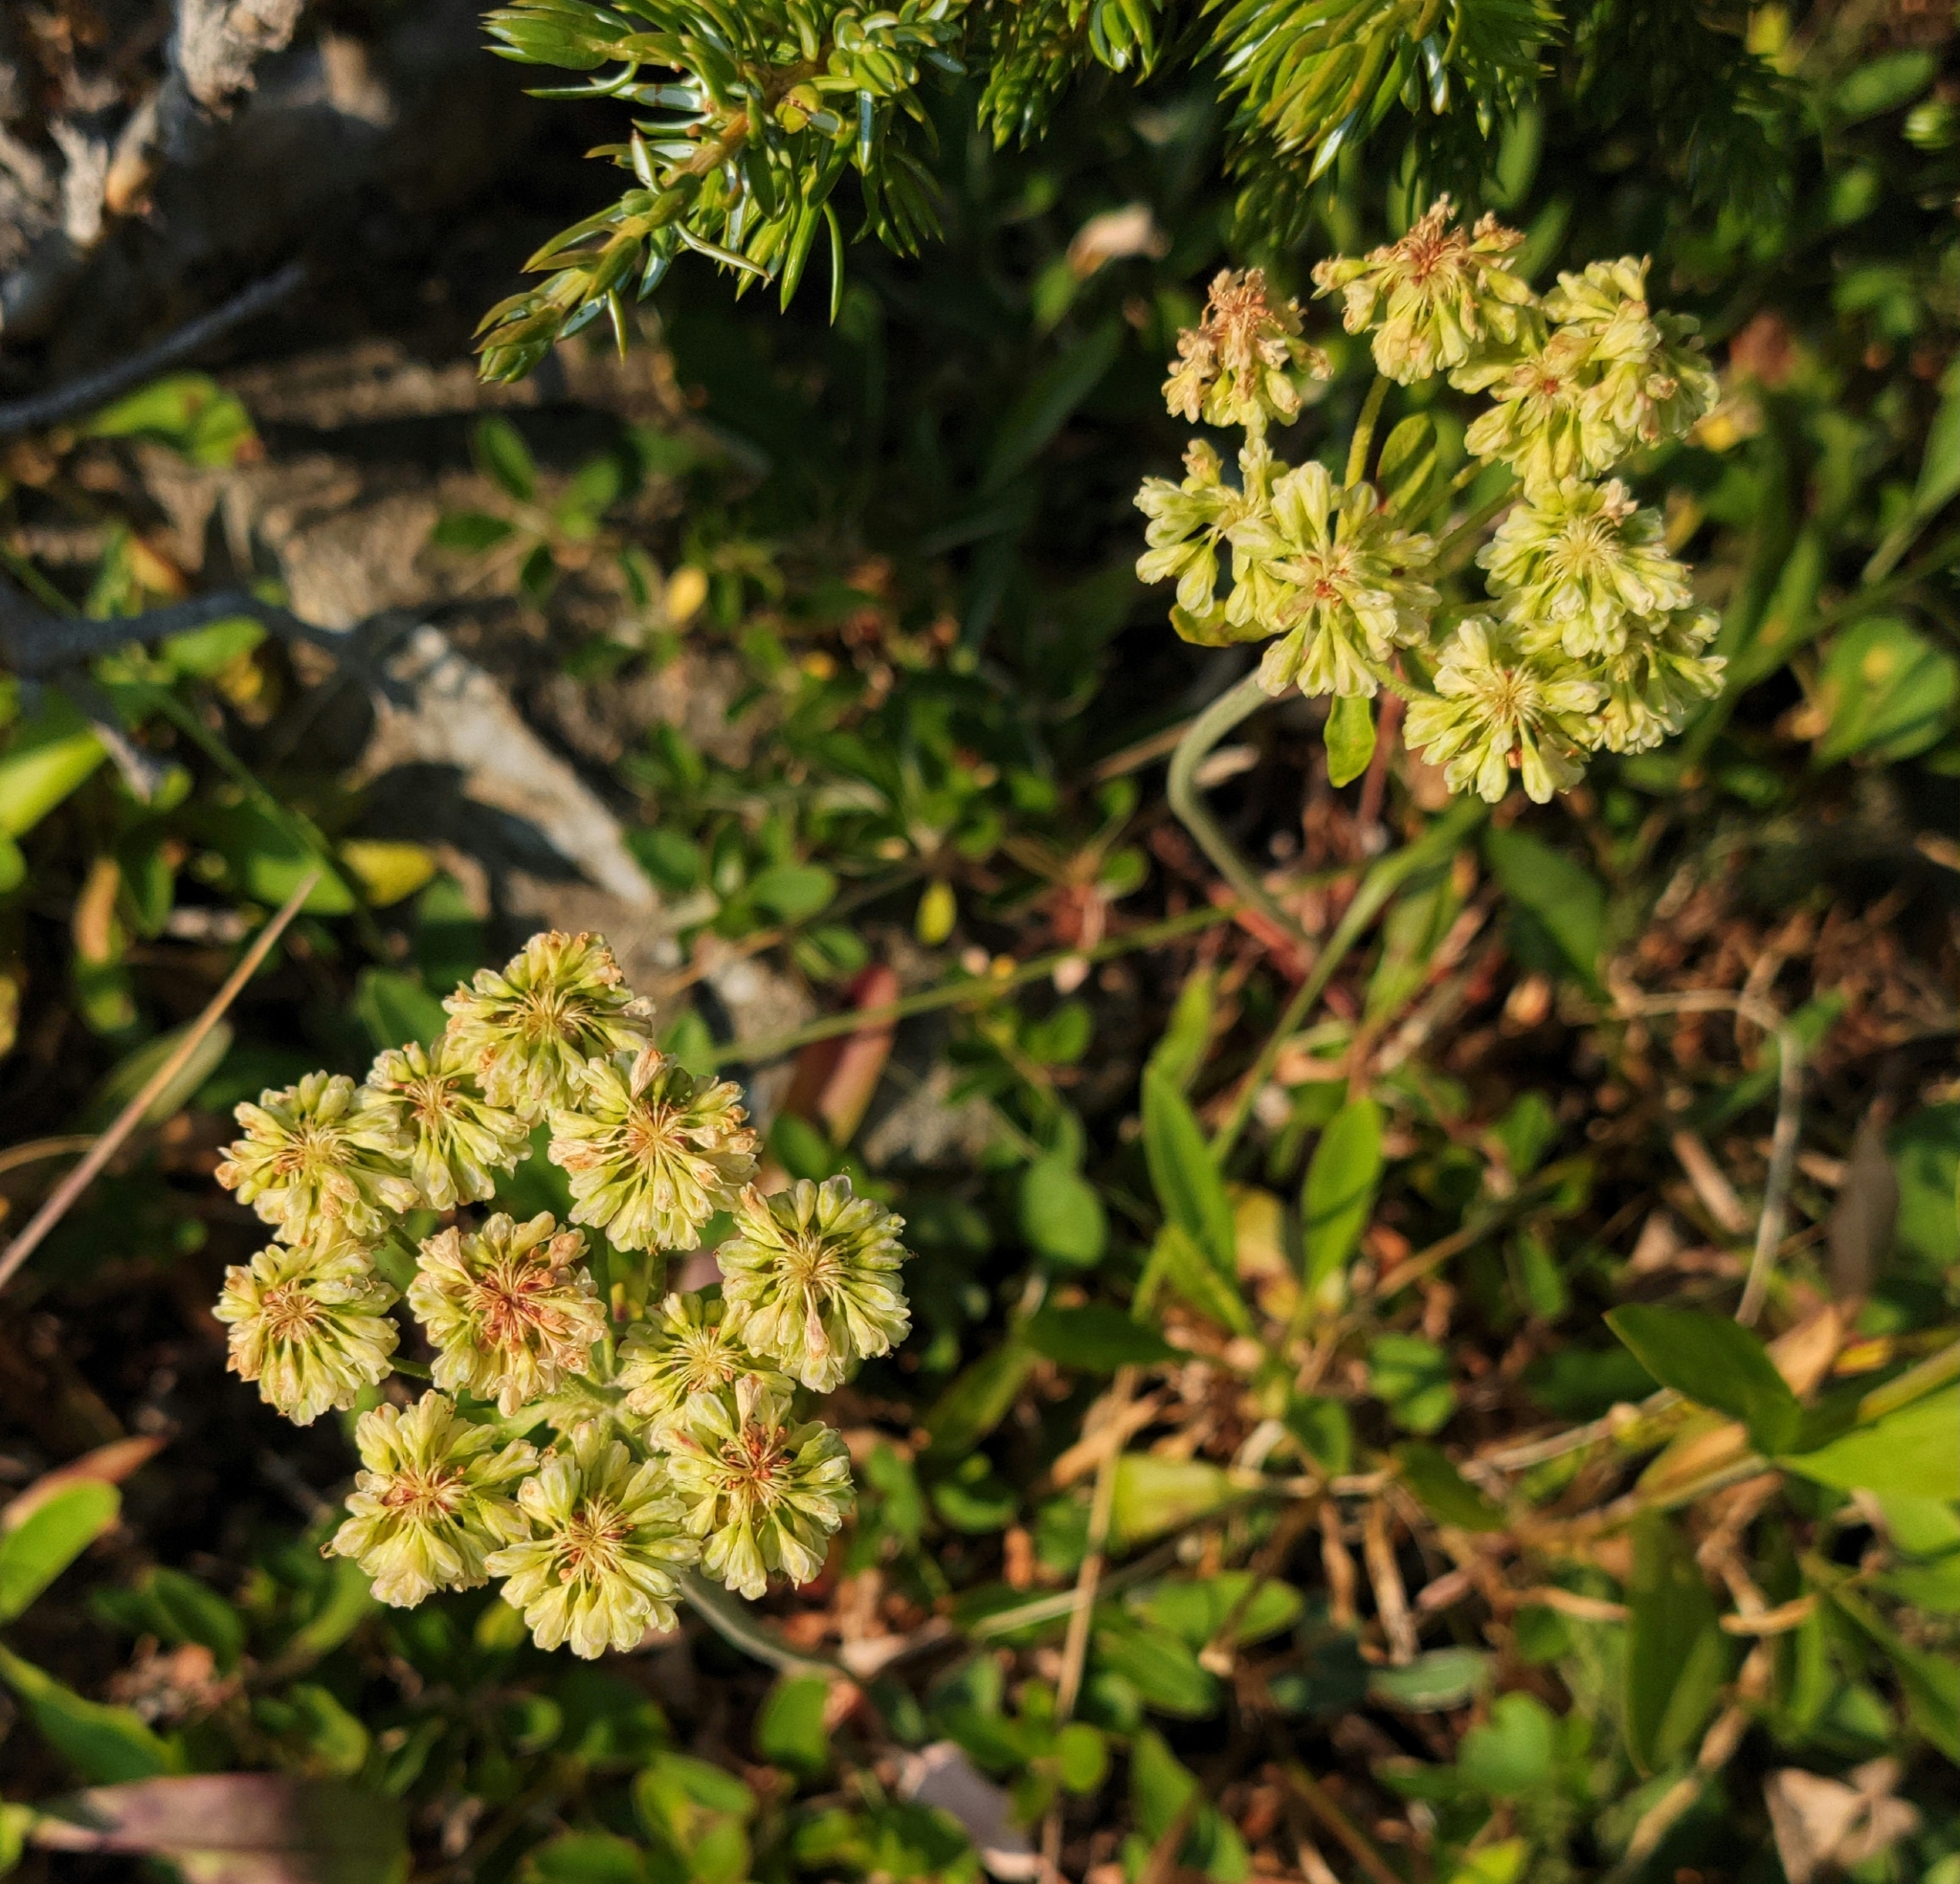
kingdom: Plantae
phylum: Tracheophyta
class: Magnoliopsida
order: Caryophyllales
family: Polygonaceae
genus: Eriogonum
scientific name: Eriogonum umbellatum
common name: Sulfur-buckwheat
